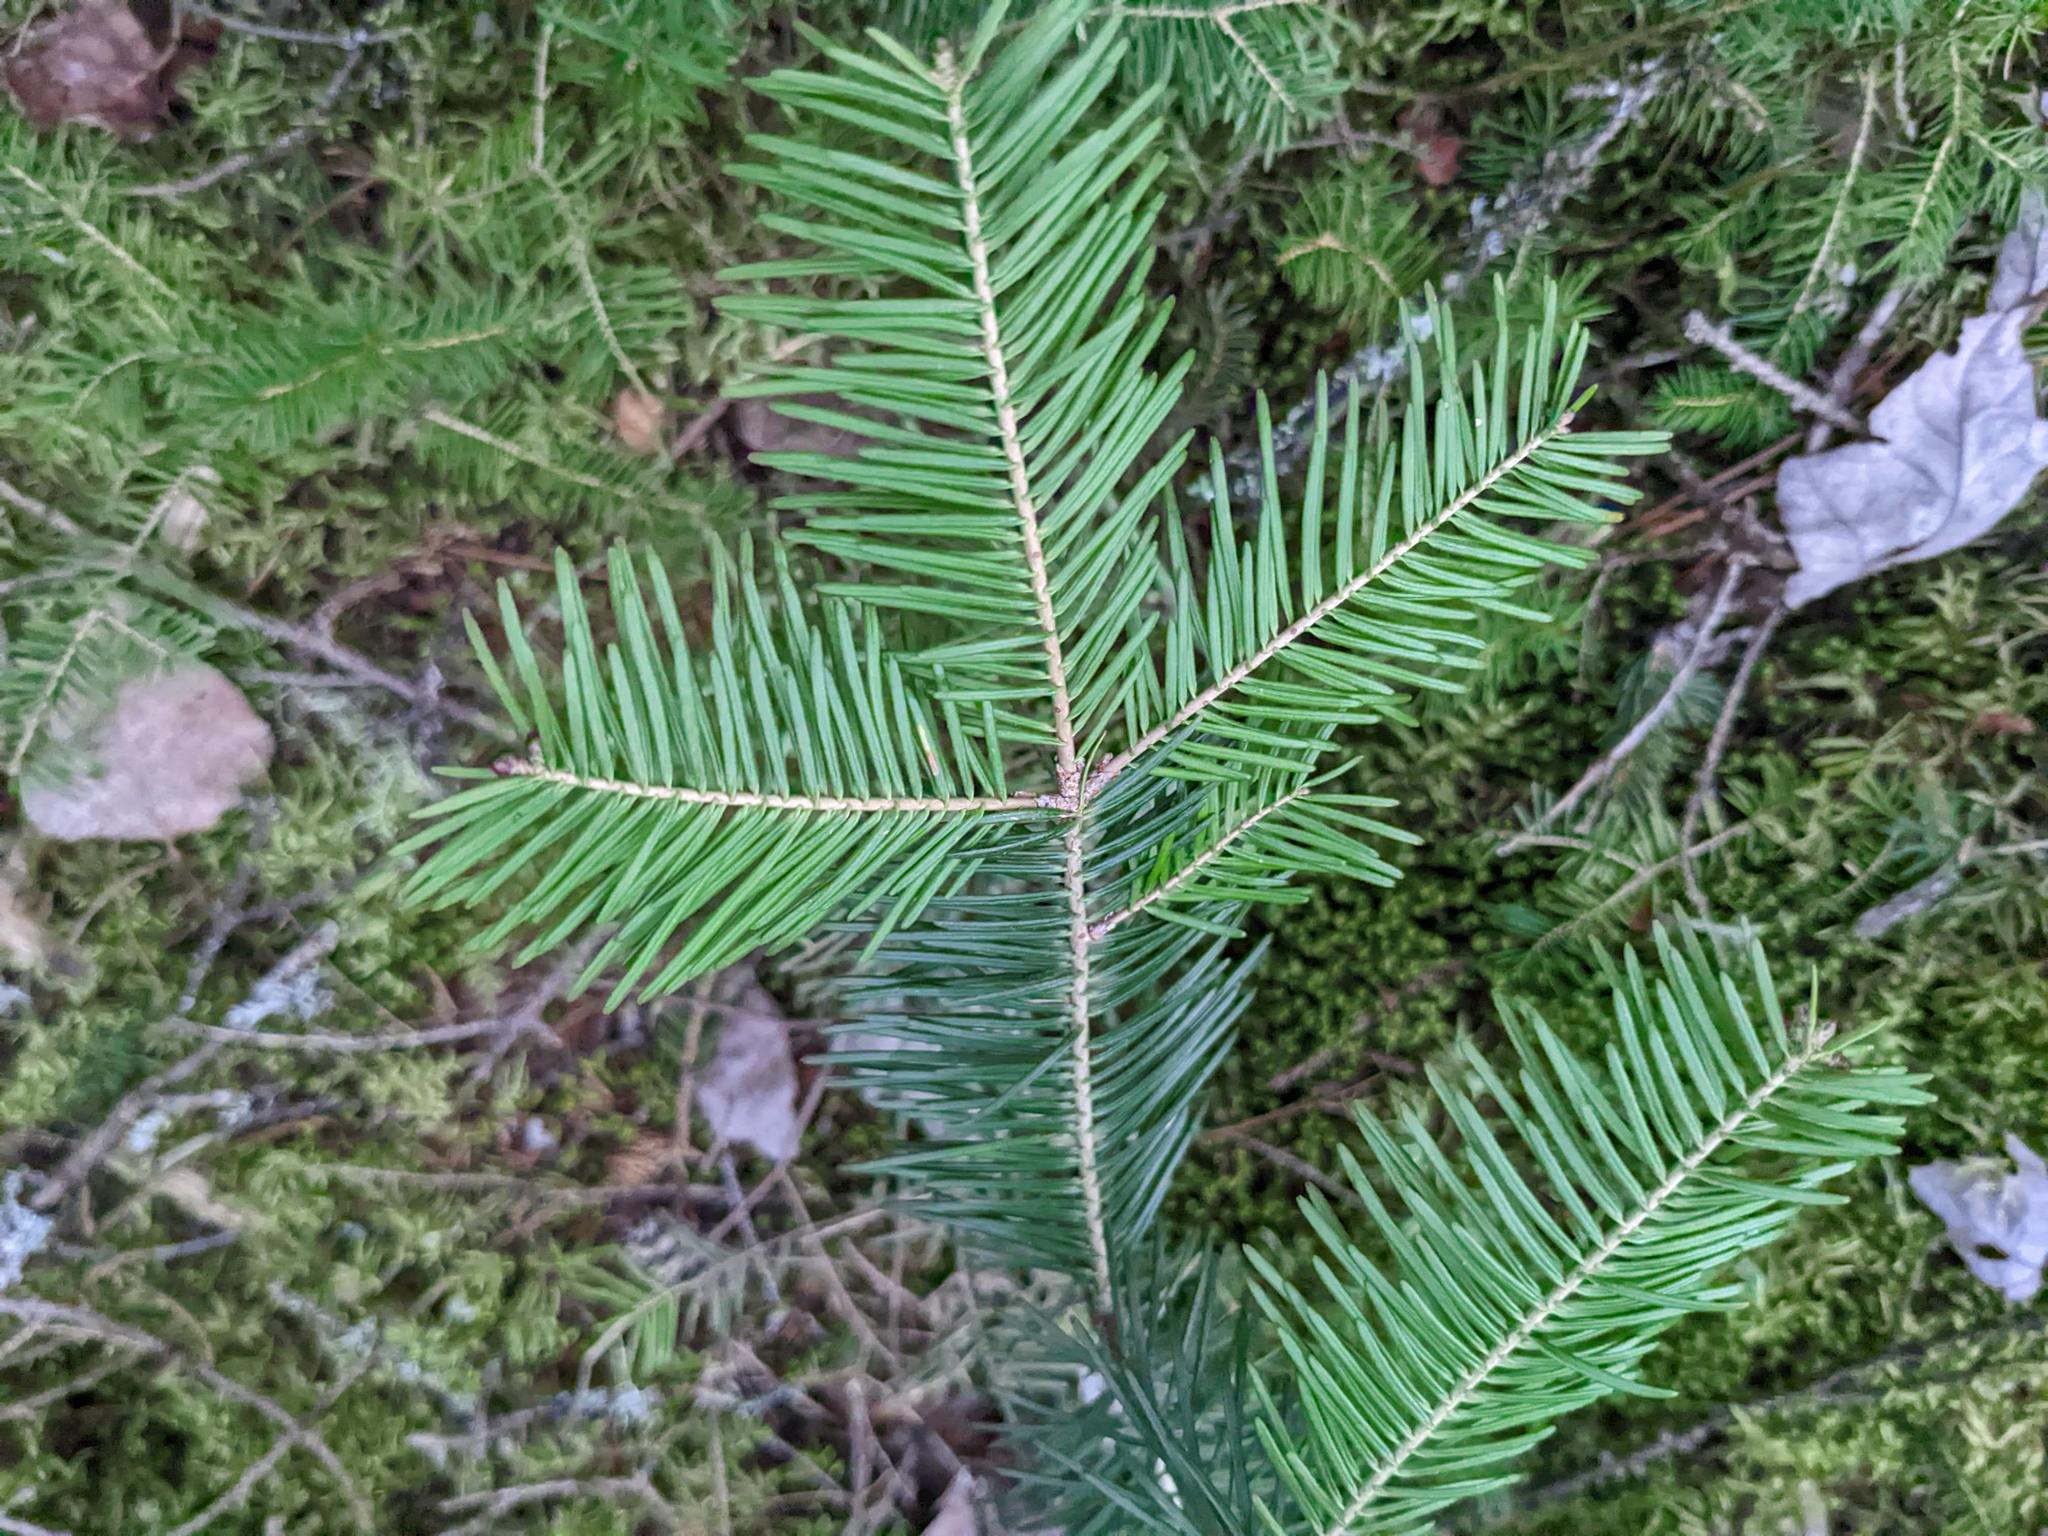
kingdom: Plantae
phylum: Tracheophyta
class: Pinopsida
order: Pinales
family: Pinaceae
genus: Abies
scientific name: Abies balsamea
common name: Balsam fir
